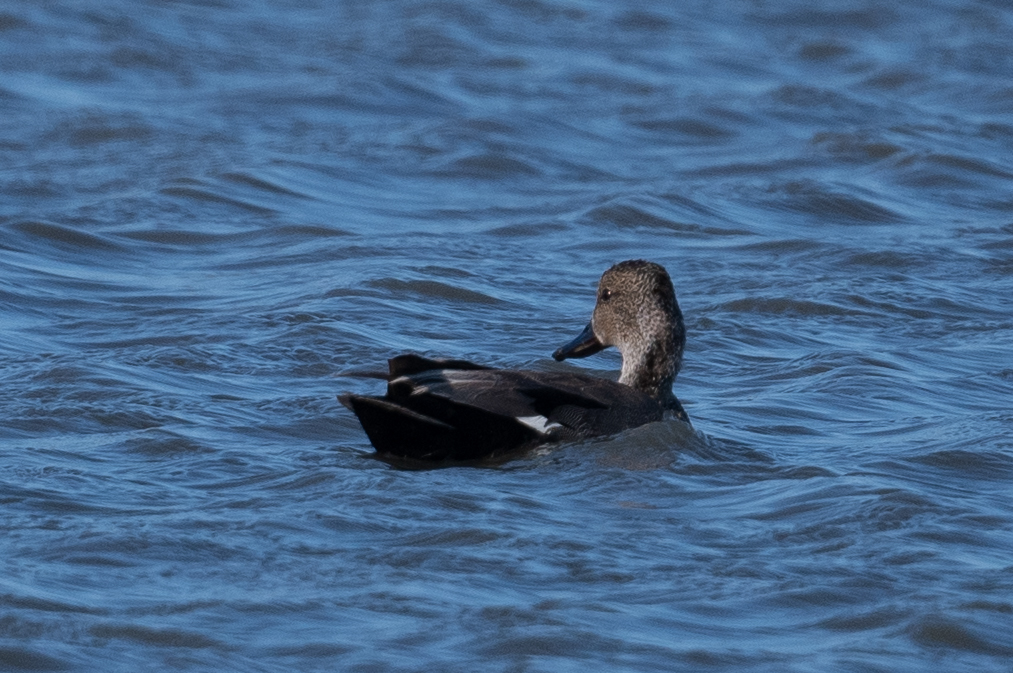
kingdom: Animalia
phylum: Chordata
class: Aves
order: Anseriformes
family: Anatidae
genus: Mareca
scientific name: Mareca strepera
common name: Gadwall
